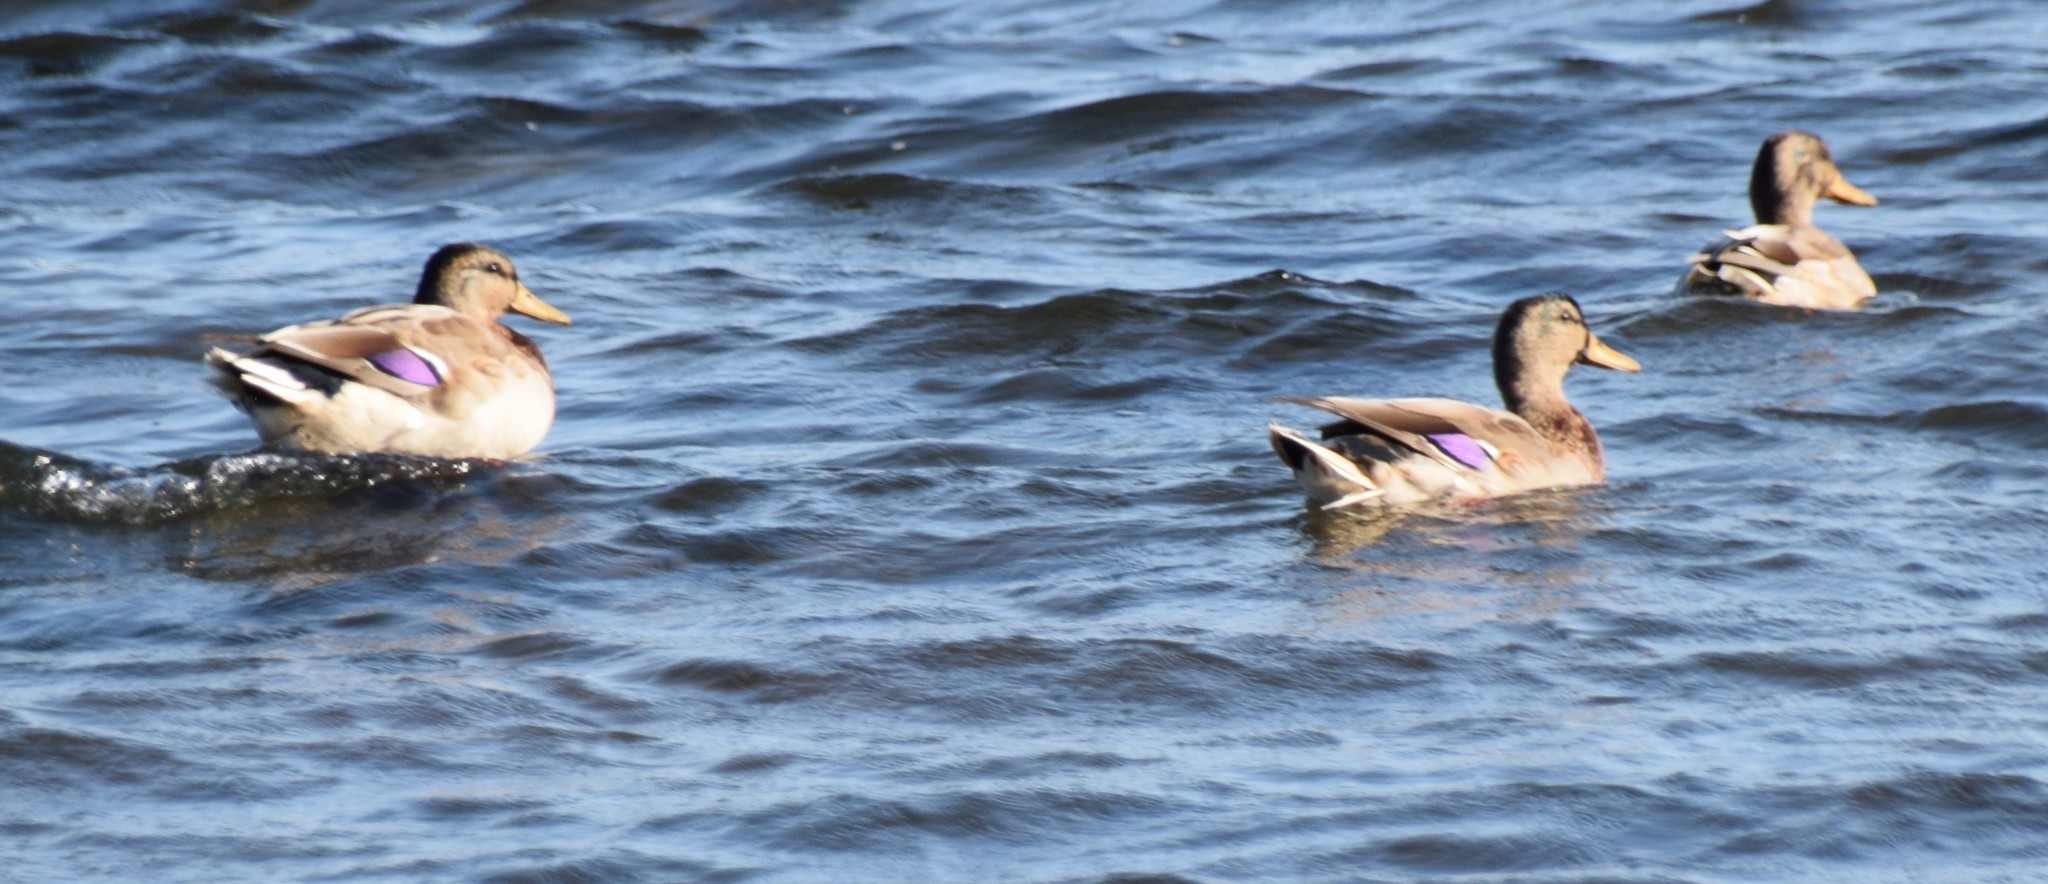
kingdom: Animalia
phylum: Chordata
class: Aves
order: Anseriformes
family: Anatidae
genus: Anas
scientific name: Anas platyrhynchos
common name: Mallard
